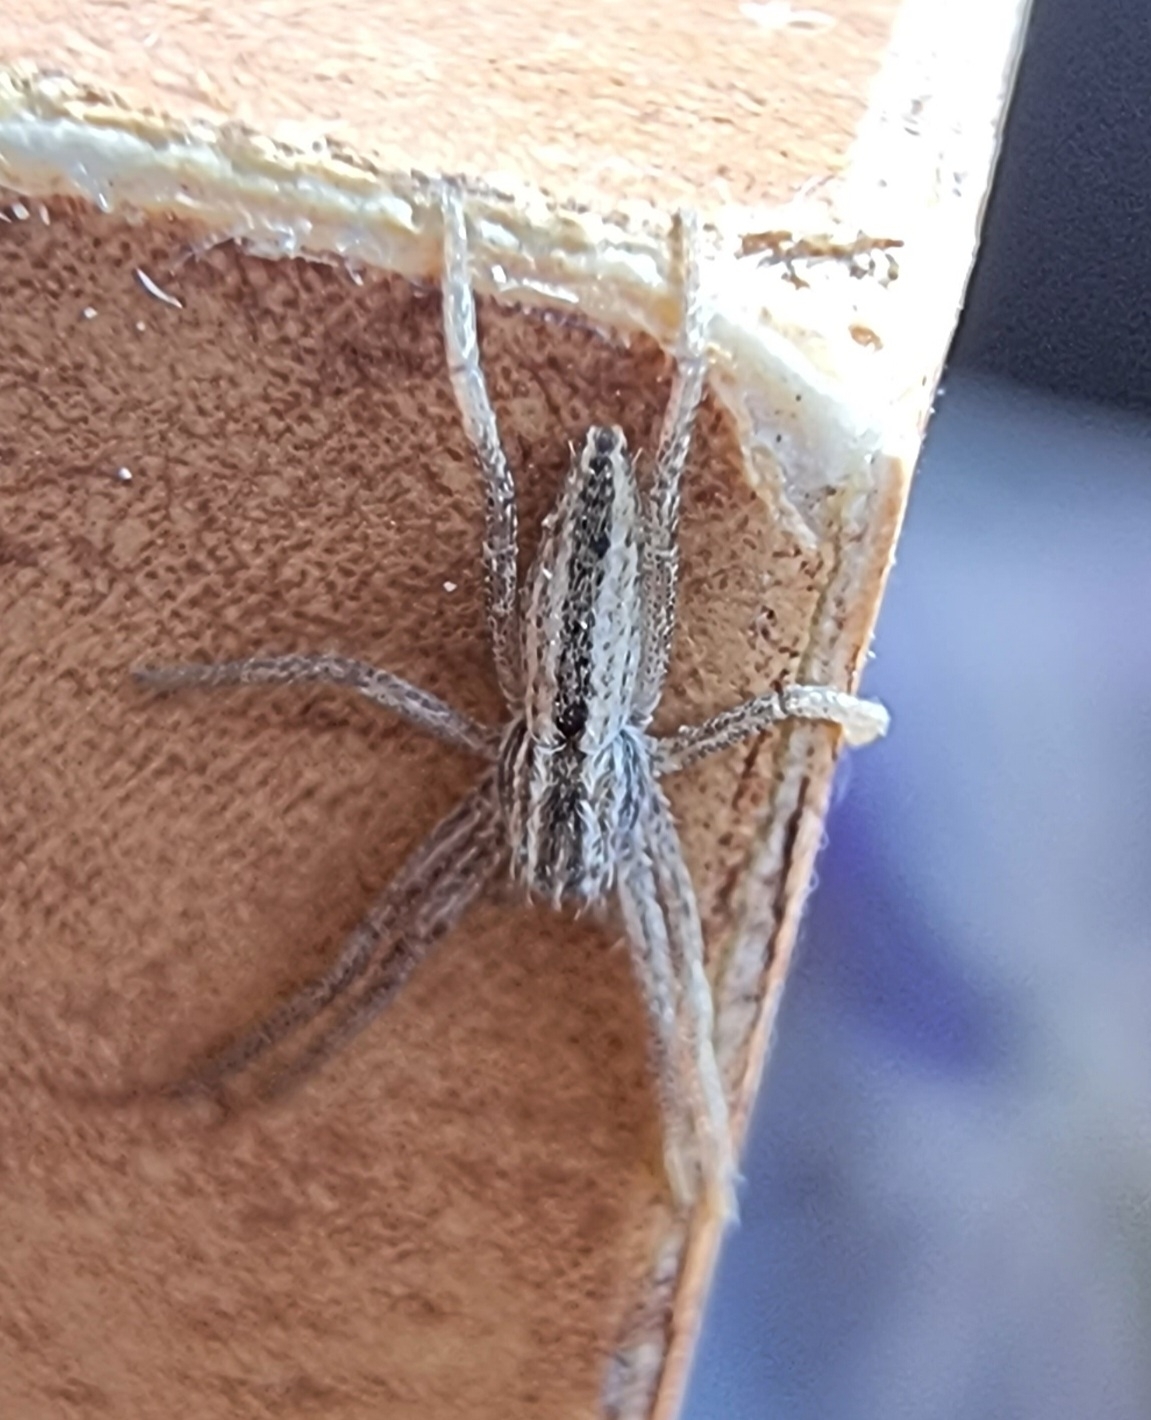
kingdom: Animalia
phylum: Arthropoda
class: Arachnida
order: Araneae
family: Philodromidae
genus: Tibellus
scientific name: Tibellus
